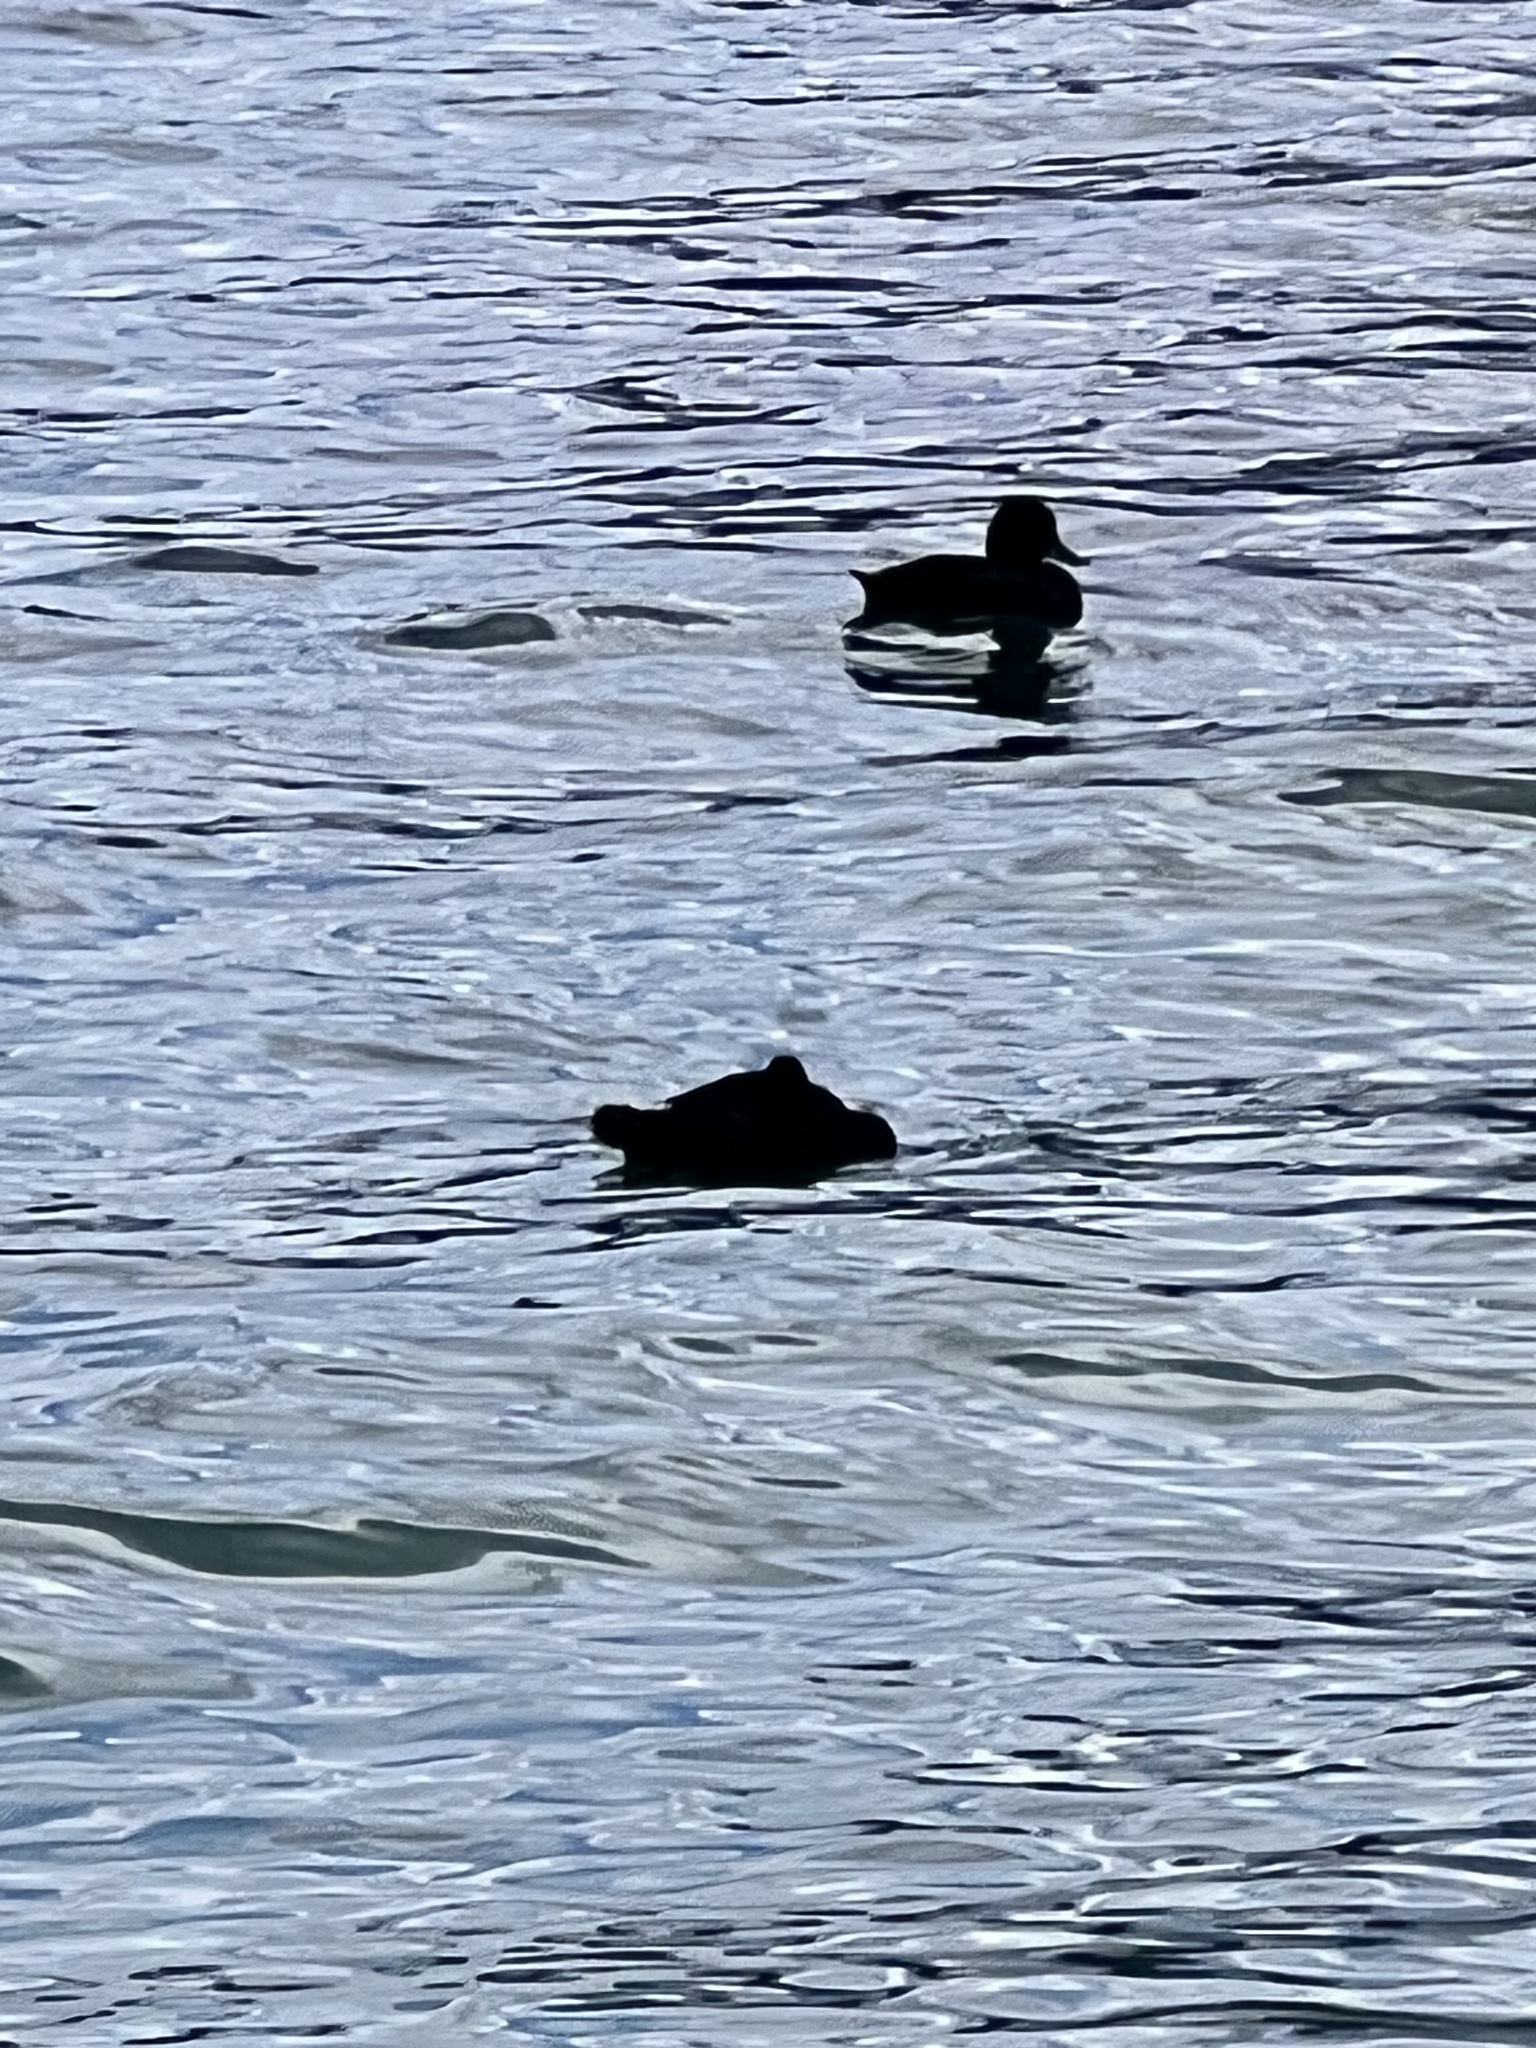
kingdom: Animalia
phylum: Chordata
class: Aves
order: Anseriformes
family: Anatidae
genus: Aythya
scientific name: Aythya novaeseelandiae
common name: New zealand scaup
